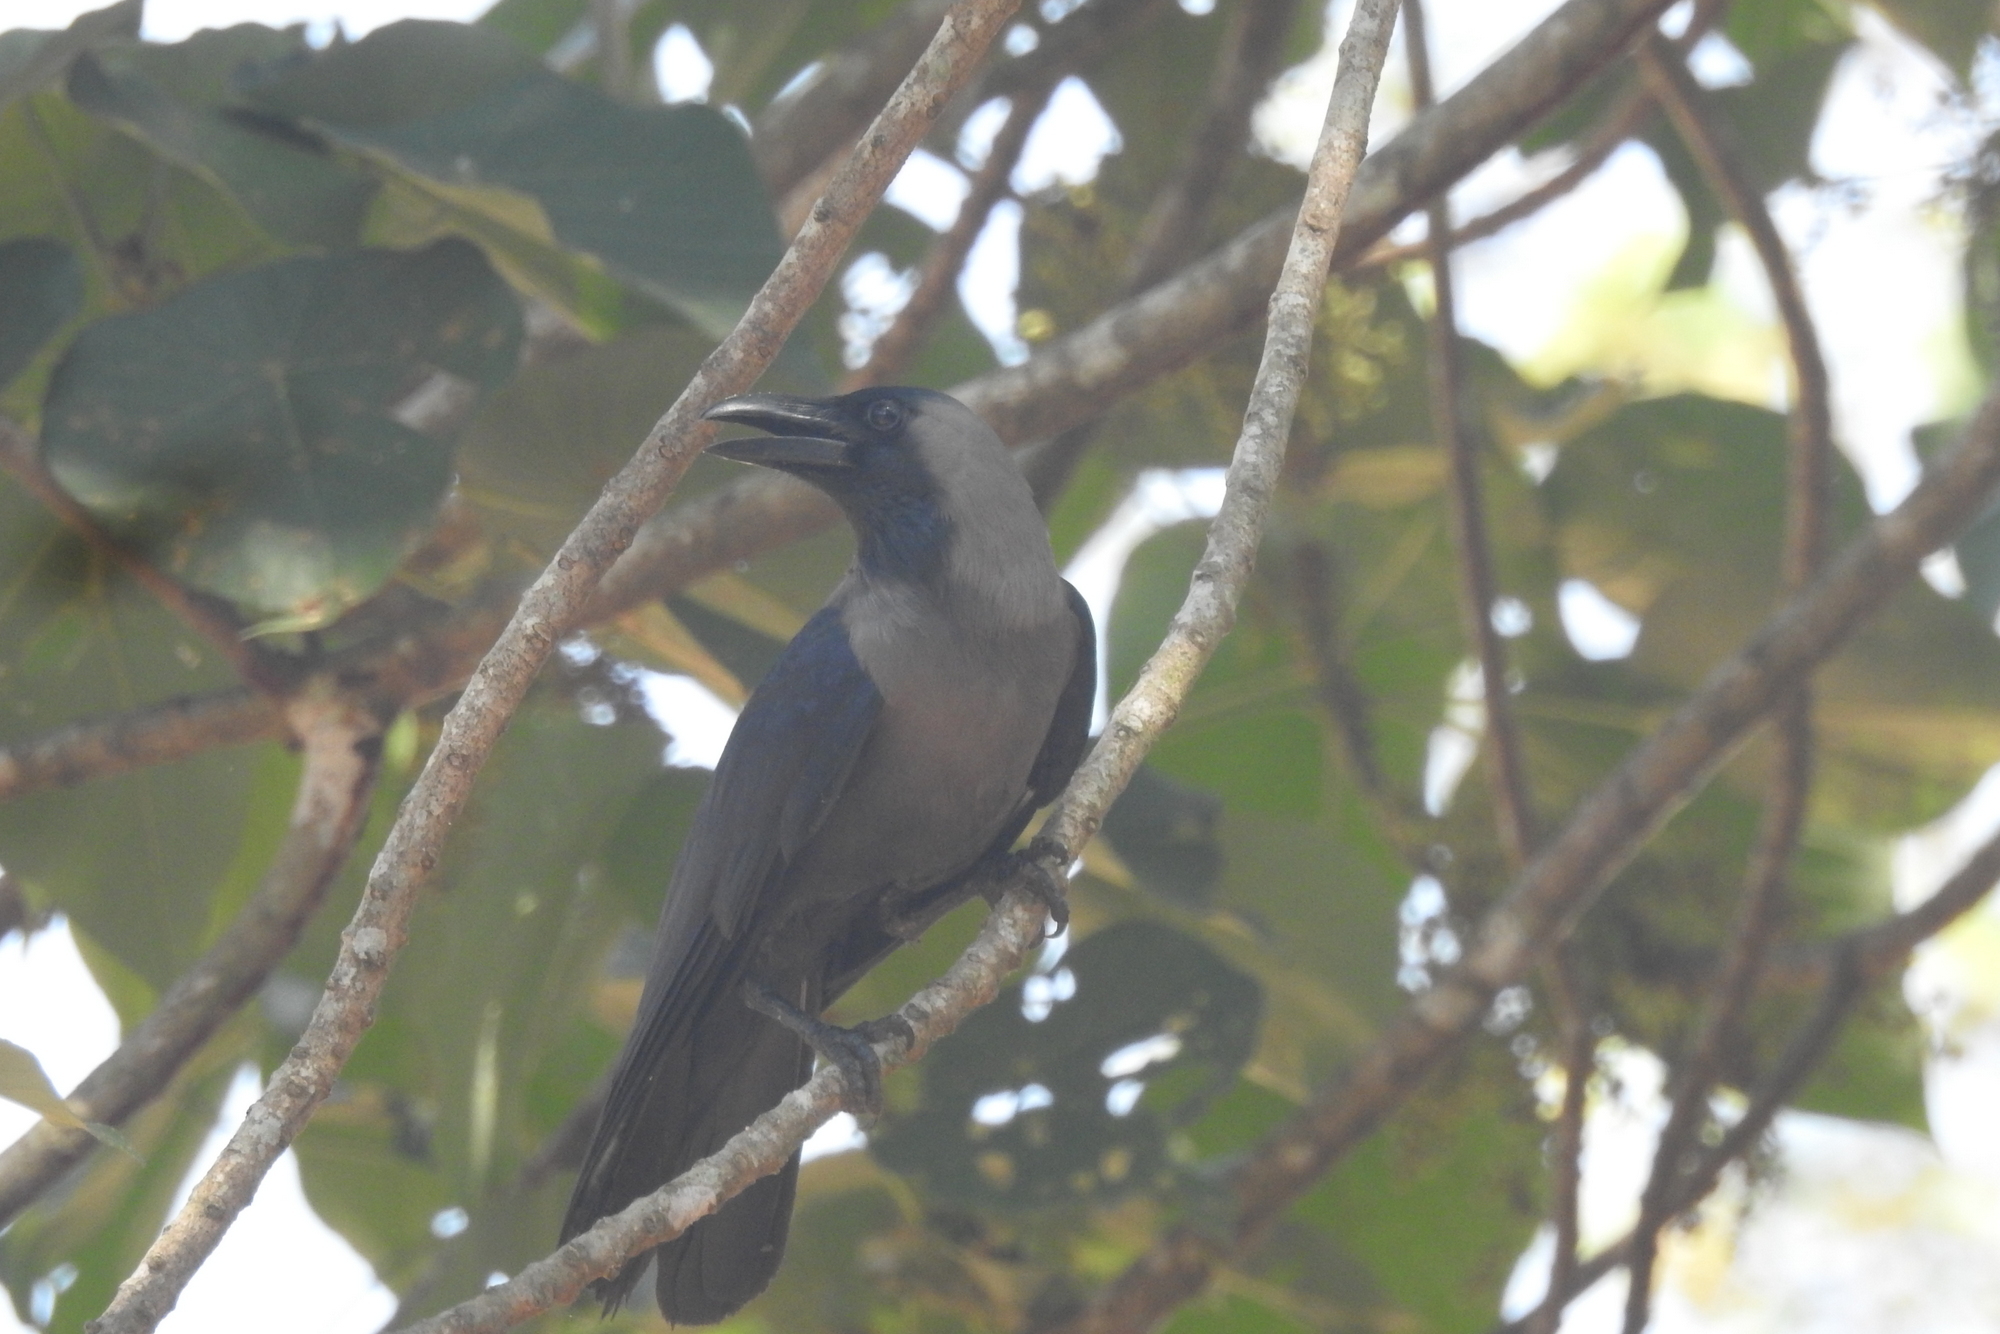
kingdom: Animalia
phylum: Chordata
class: Aves
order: Passeriformes
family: Corvidae
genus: Corvus
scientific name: Corvus splendens
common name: House crow
